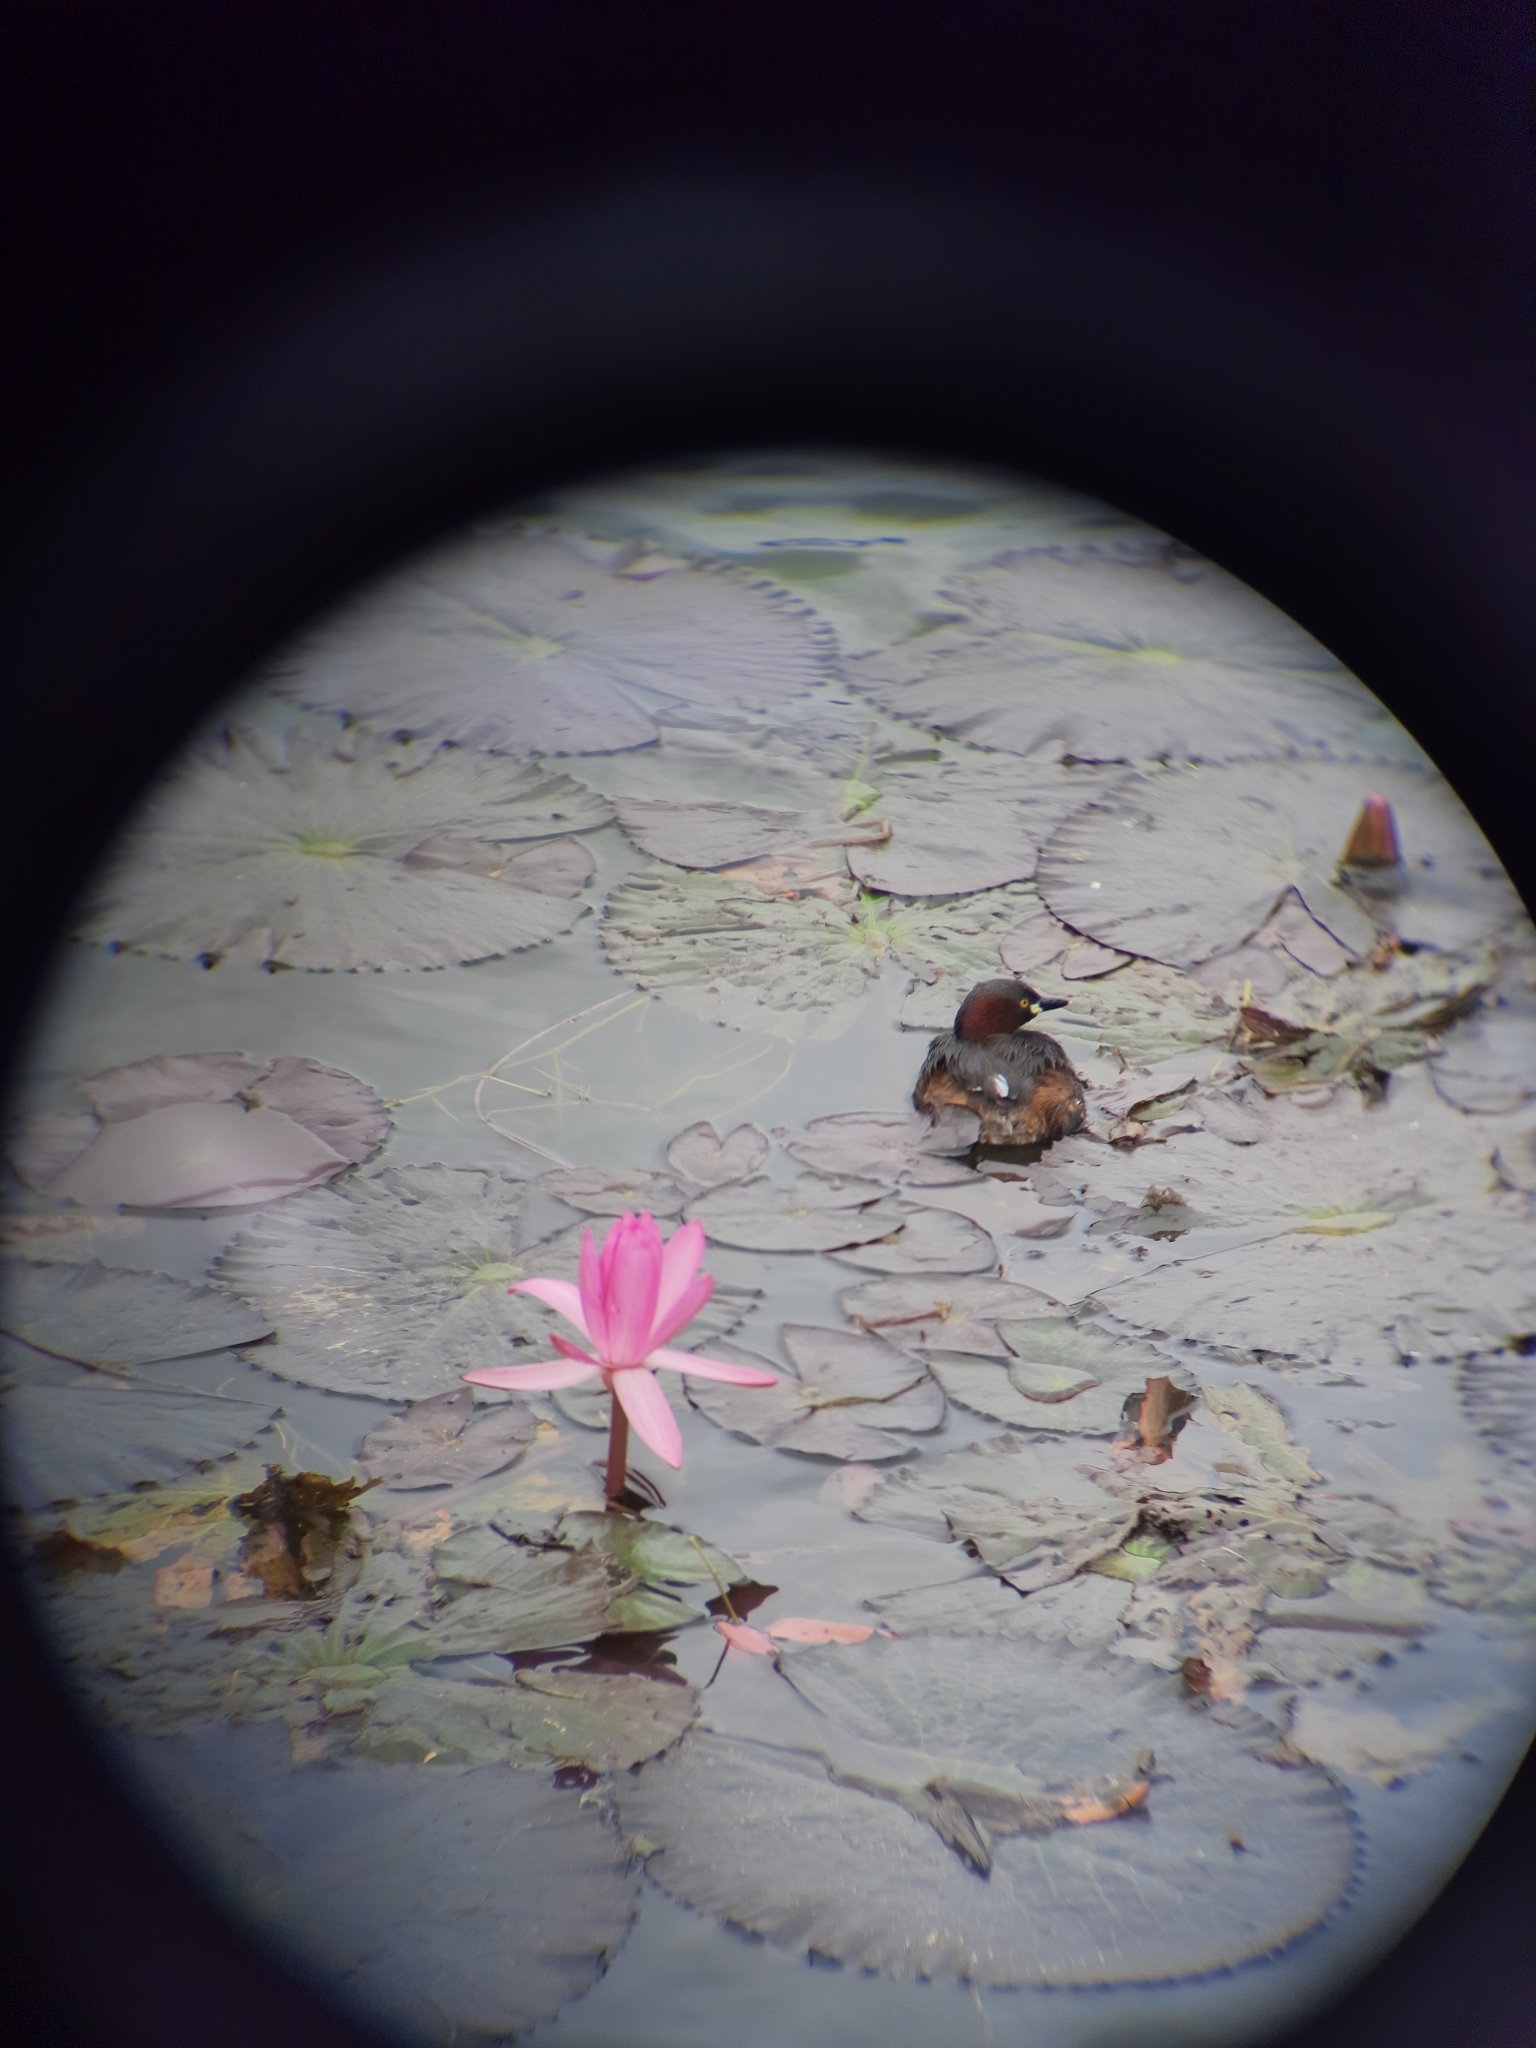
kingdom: Animalia
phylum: Chordata
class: Aves
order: Podicipediformes
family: Podicipedidae
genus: Tachybaptus
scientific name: Tachybaptus ruficollis
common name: Little grebe
